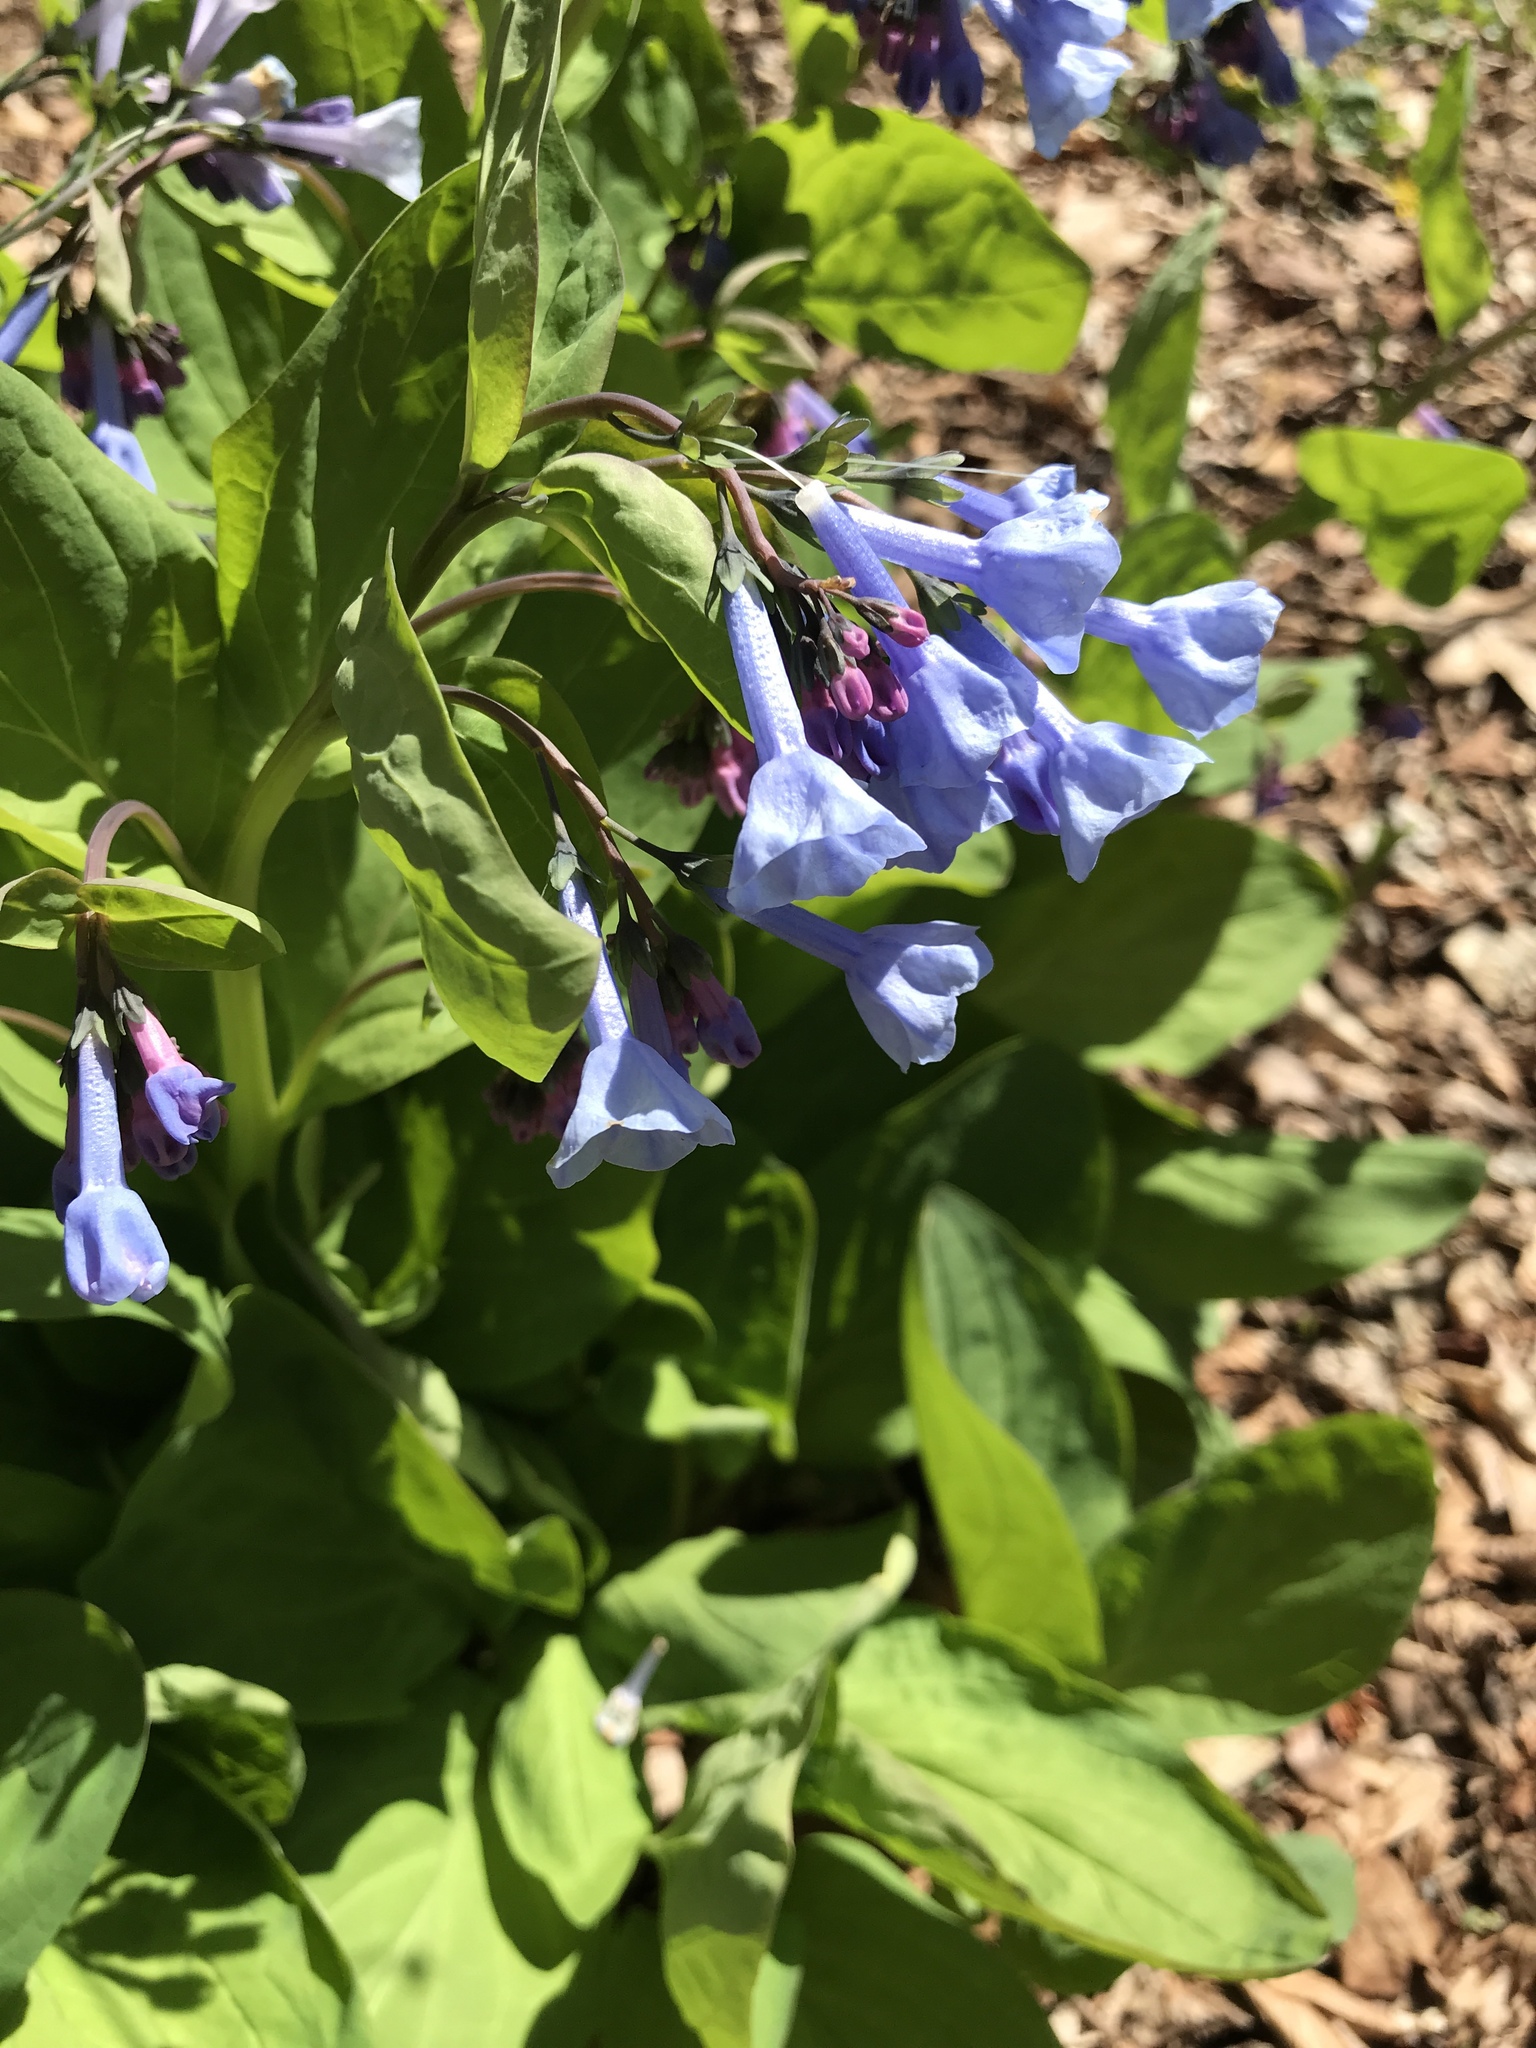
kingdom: Plantae
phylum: Tracheophyta
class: Magnoliopsida
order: Boraginales
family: Boraginaceae
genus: Mertensia
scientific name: Mertensia virginica
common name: Virginia bluebells
